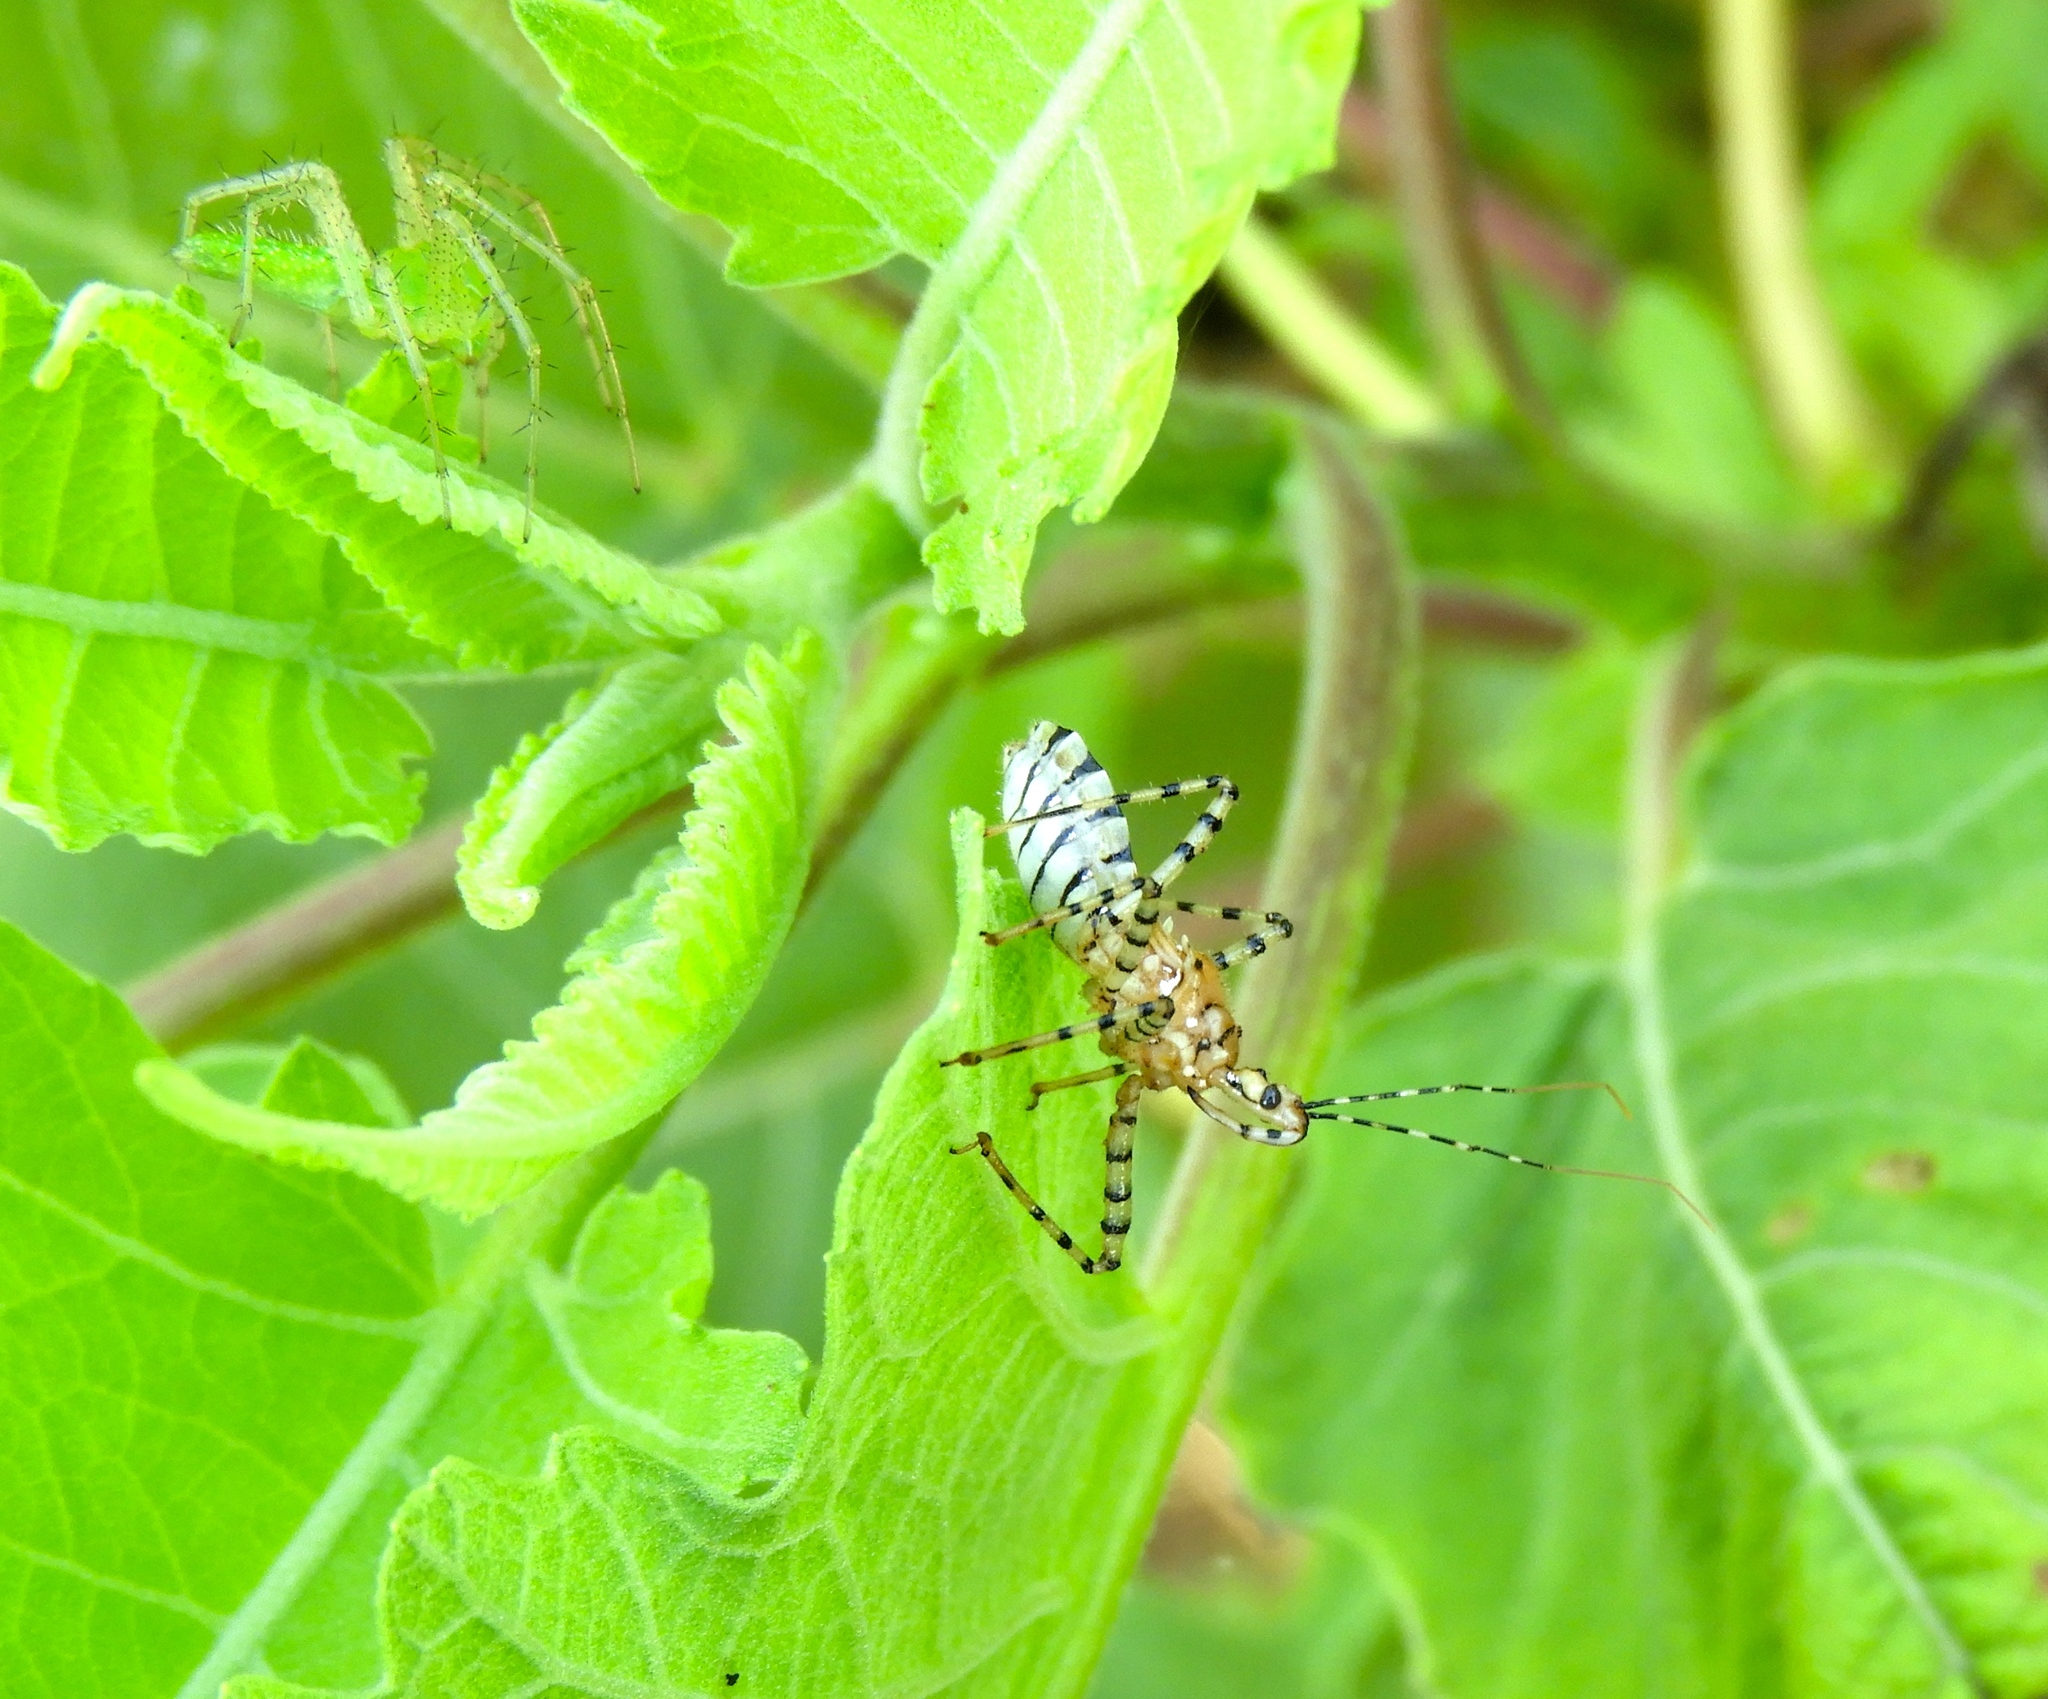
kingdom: Animalia
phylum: Arthropoda
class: Insecta
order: Hemiptera
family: Reduviidae
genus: Pselliopus
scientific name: Pselliopus
